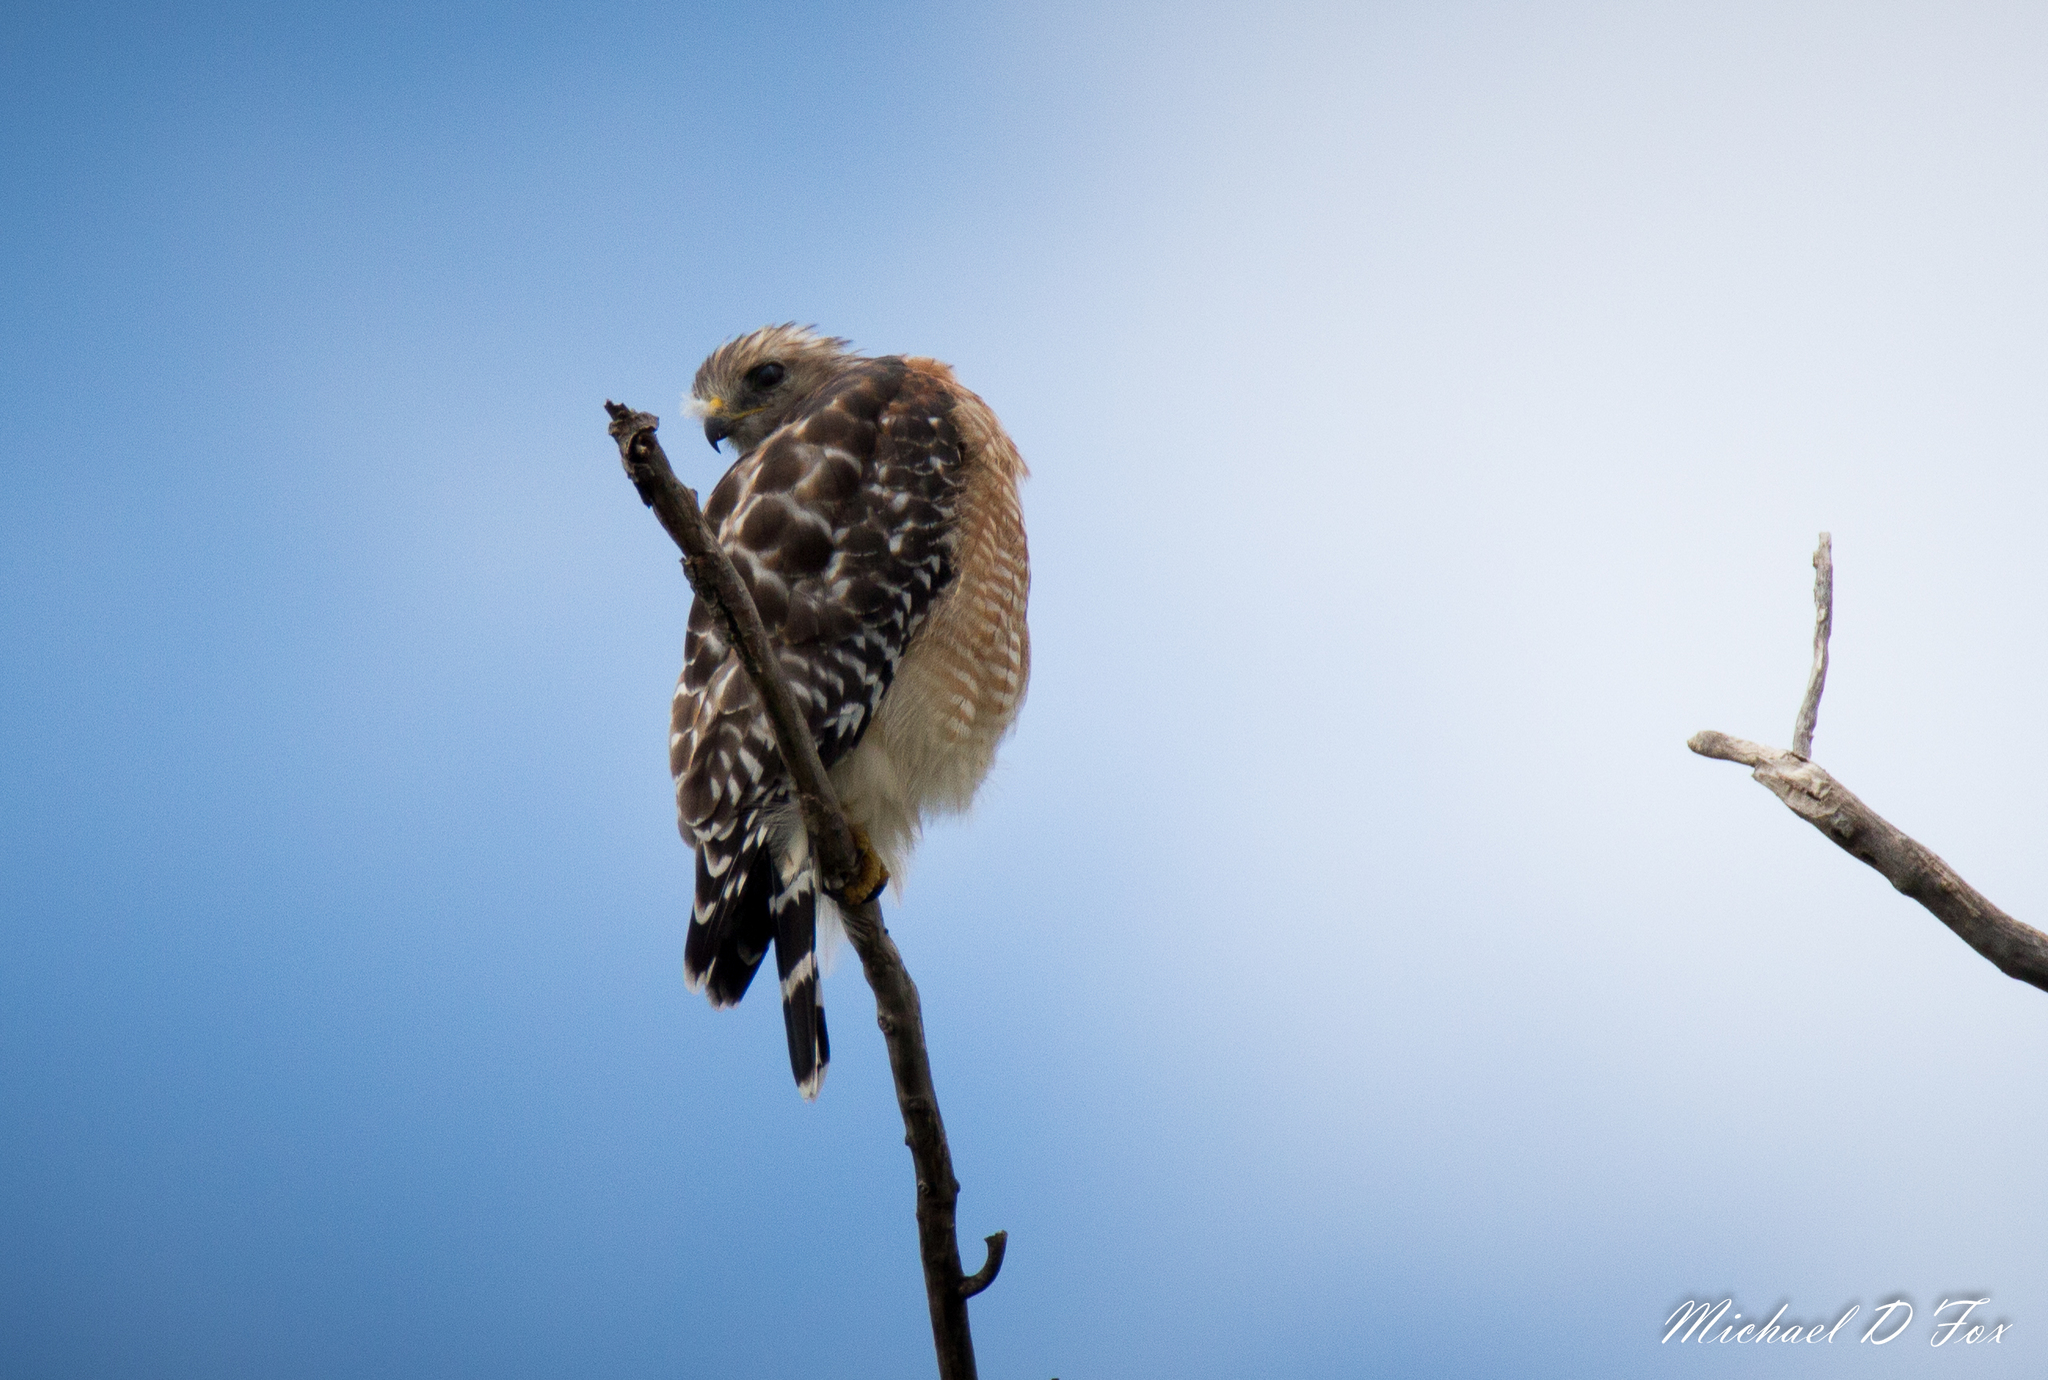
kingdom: Animalia
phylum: Chordata
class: Aves
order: Accipitriformes
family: Accipitridae
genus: Buteo
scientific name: Buteo lineatus
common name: Red-shouldered hawk
